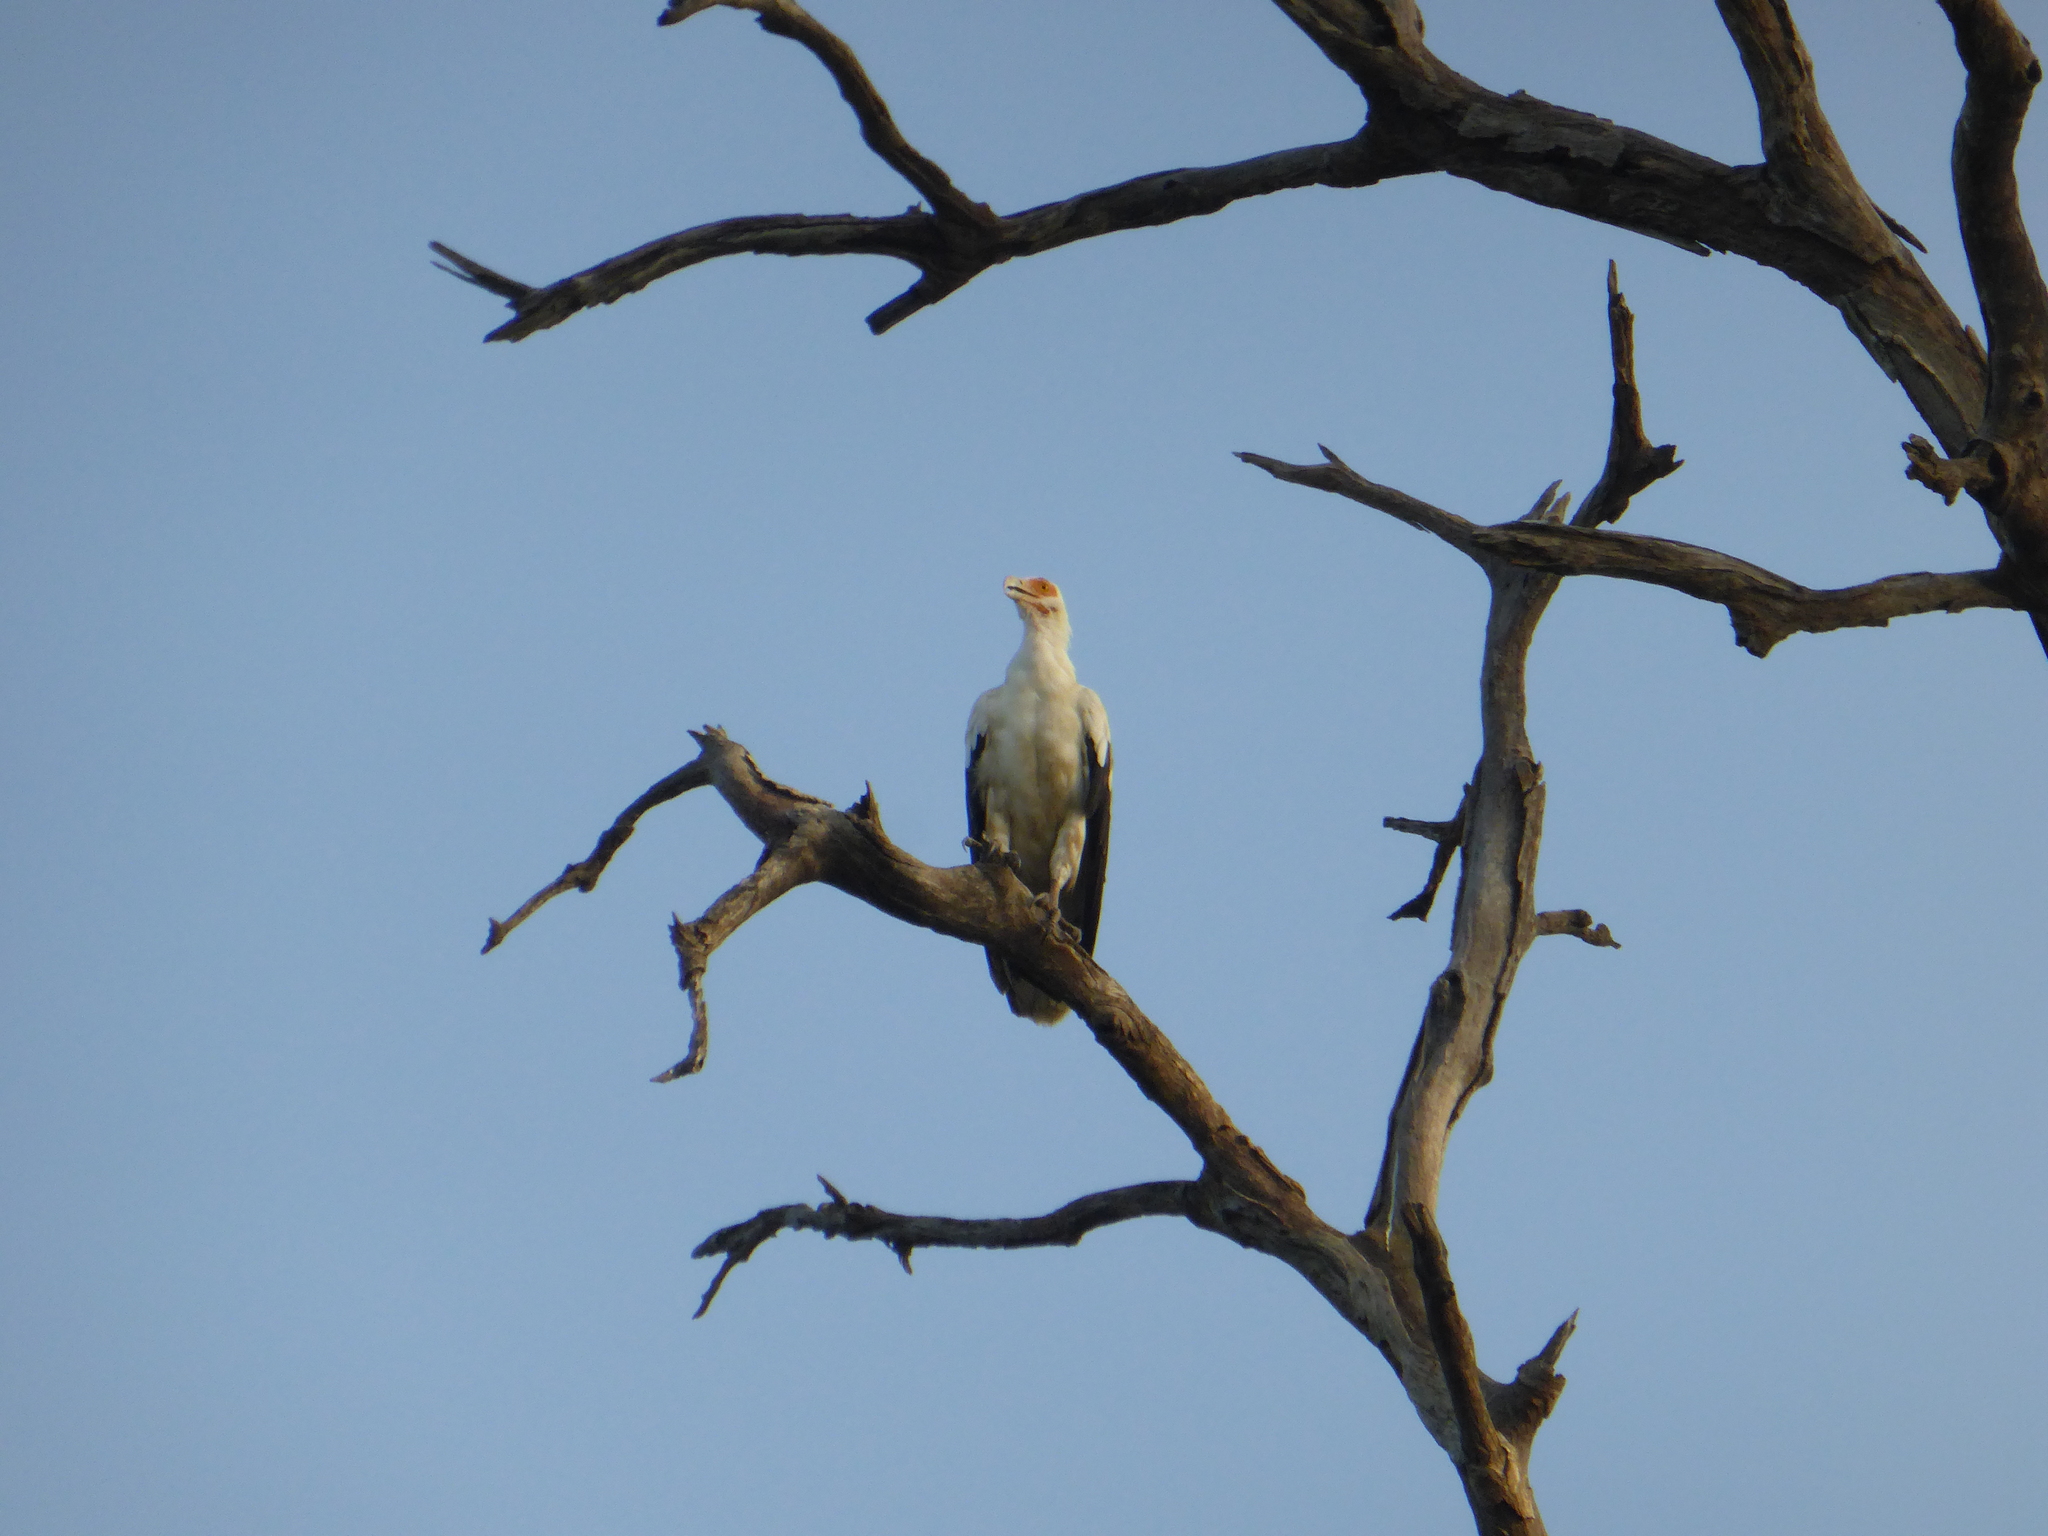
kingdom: Animalia
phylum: Chordata
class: Aves
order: Accipitriformes
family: Accipitridae
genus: Gypohierax
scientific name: Gypohierax angolensis
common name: Palm-nut vulture
